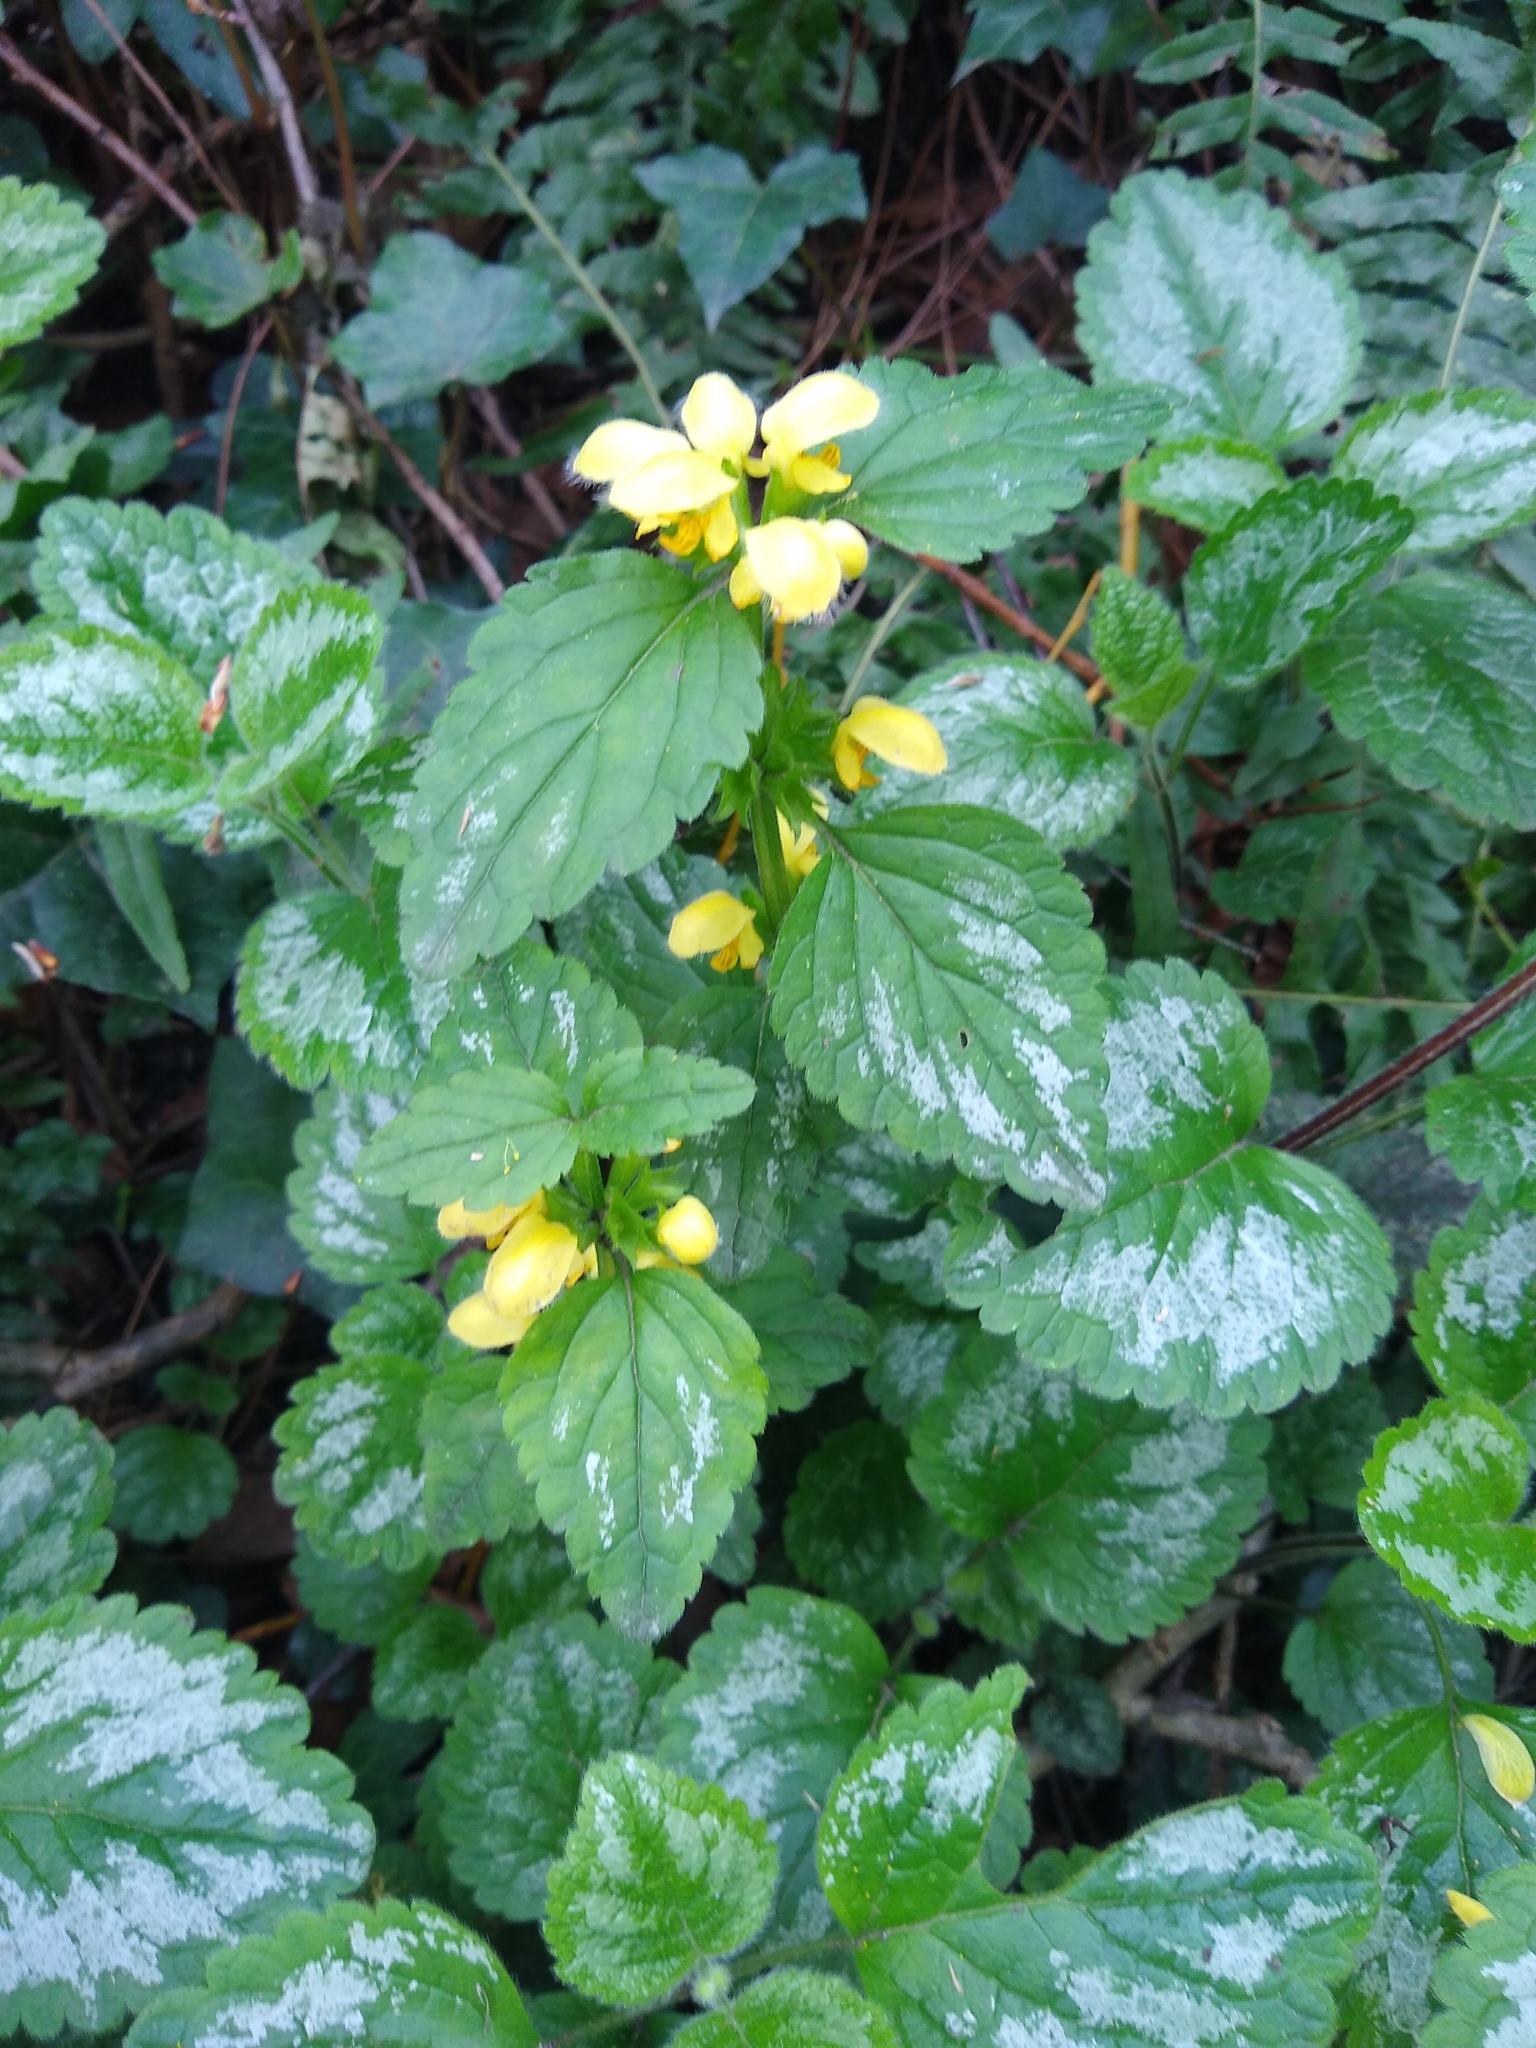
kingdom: Plantae
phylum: Tracheophyta
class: Magnoliopsida
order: Lamiales
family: Lamiaceae
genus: Lamium
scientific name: Lamium galeobdolon
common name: Yellow archangel
